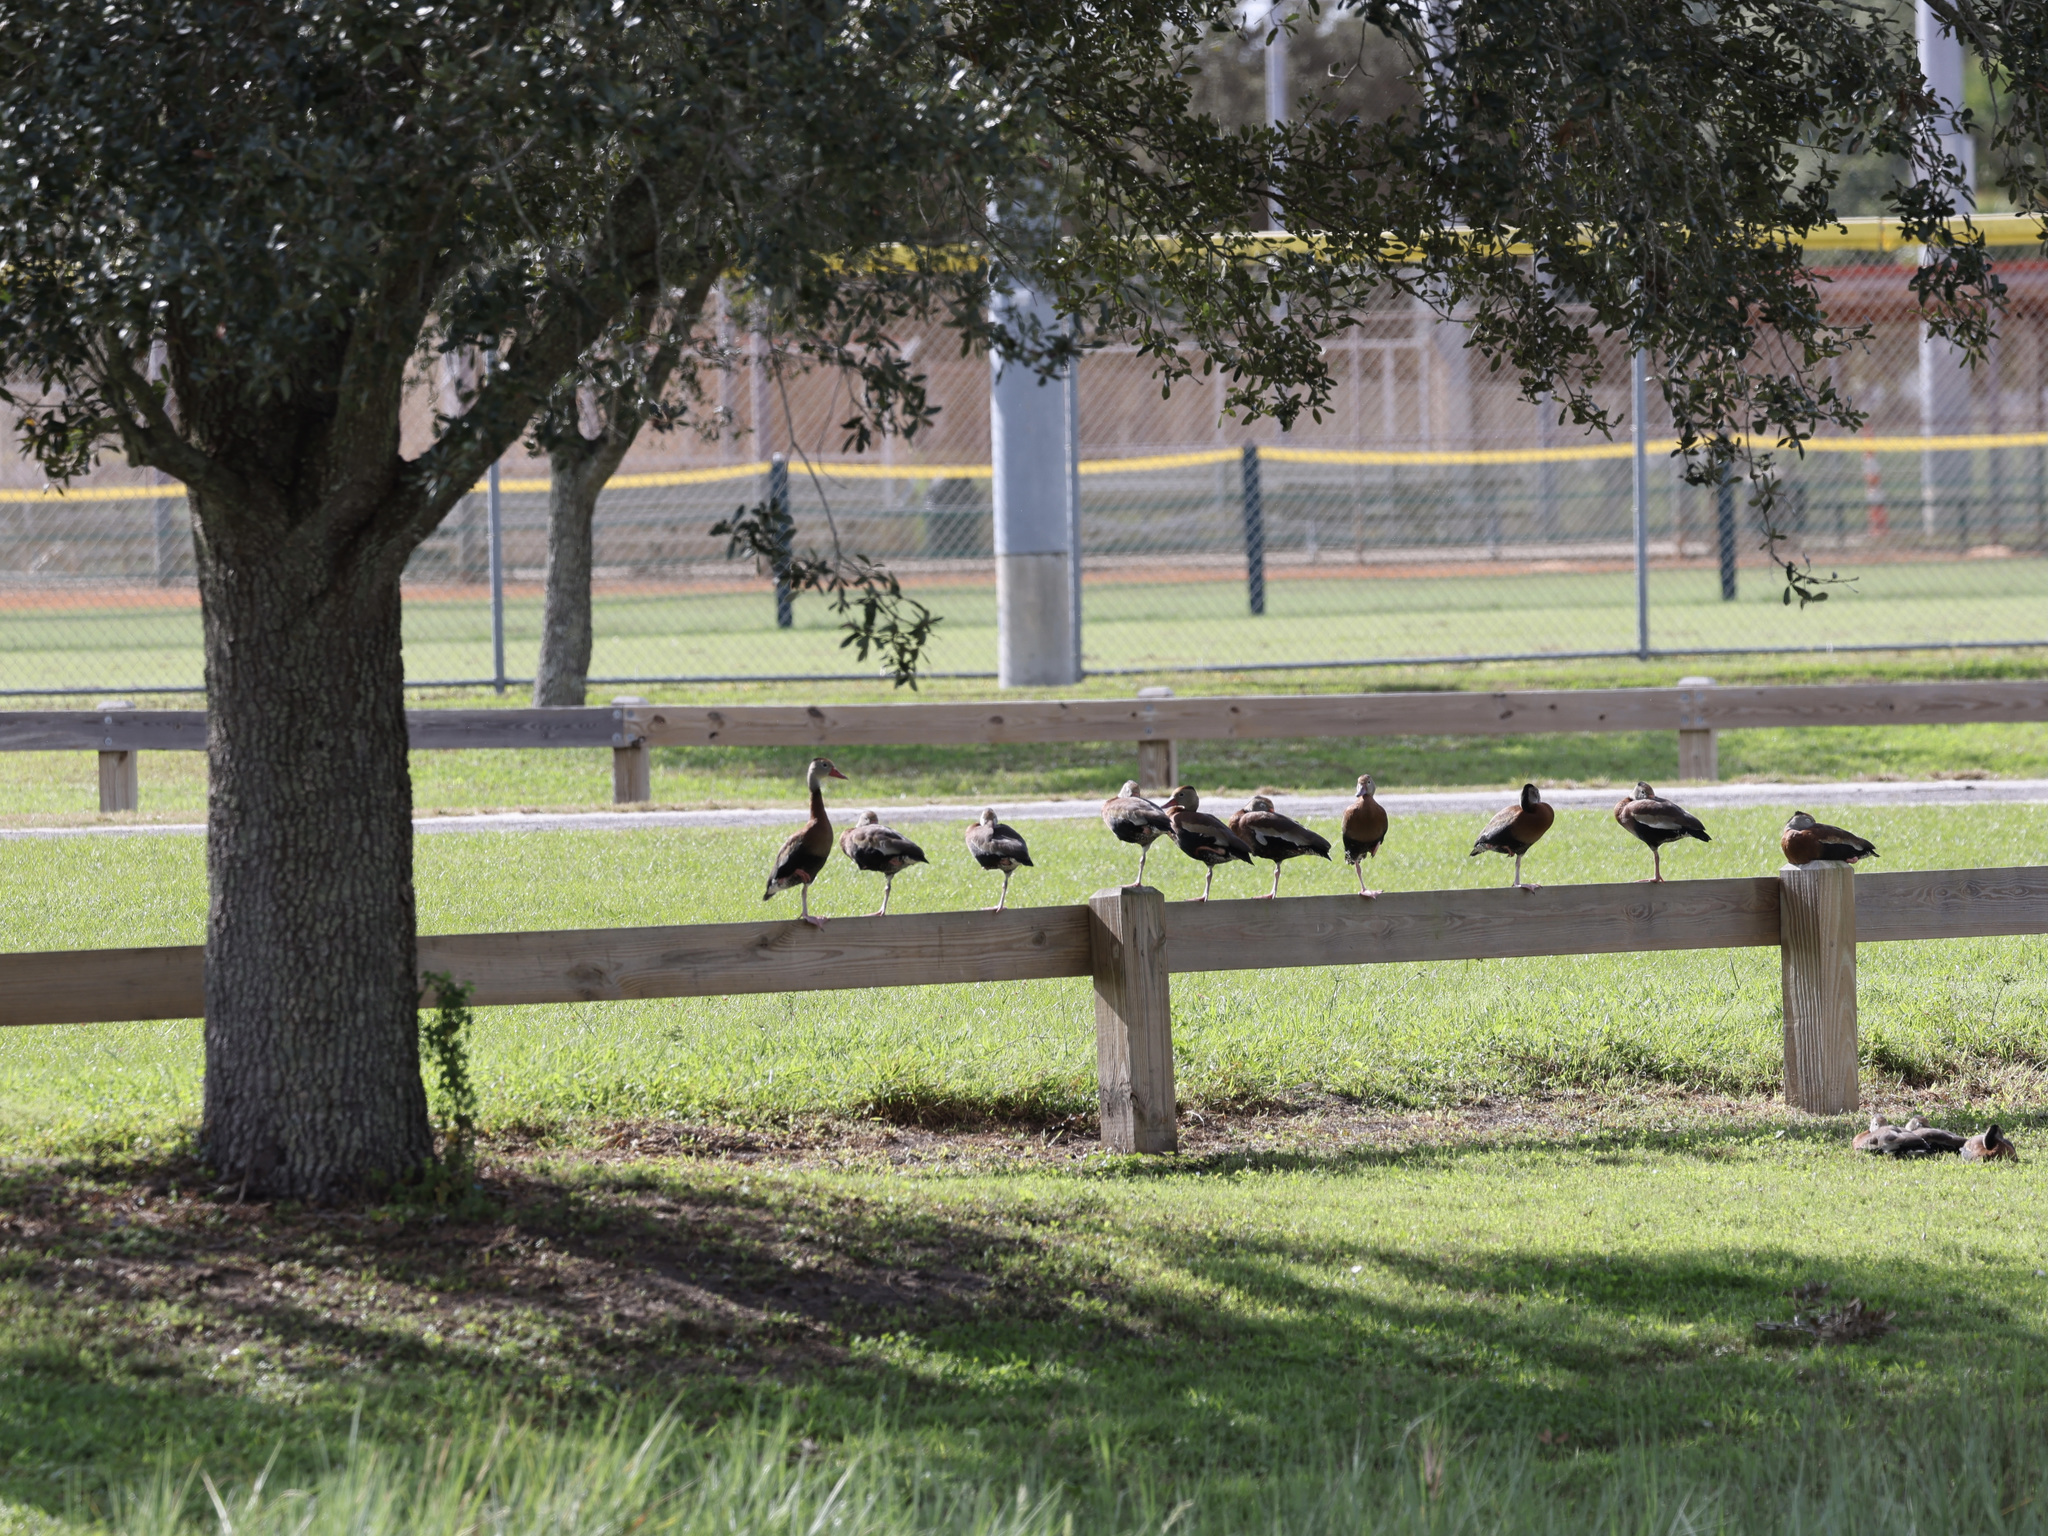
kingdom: Animalia
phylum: Chordata
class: Aves
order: Anseriformes
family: Anatidae
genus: Dendrocygna
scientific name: Dendrocygna autumnalis
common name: Black-bellied whistling duck
